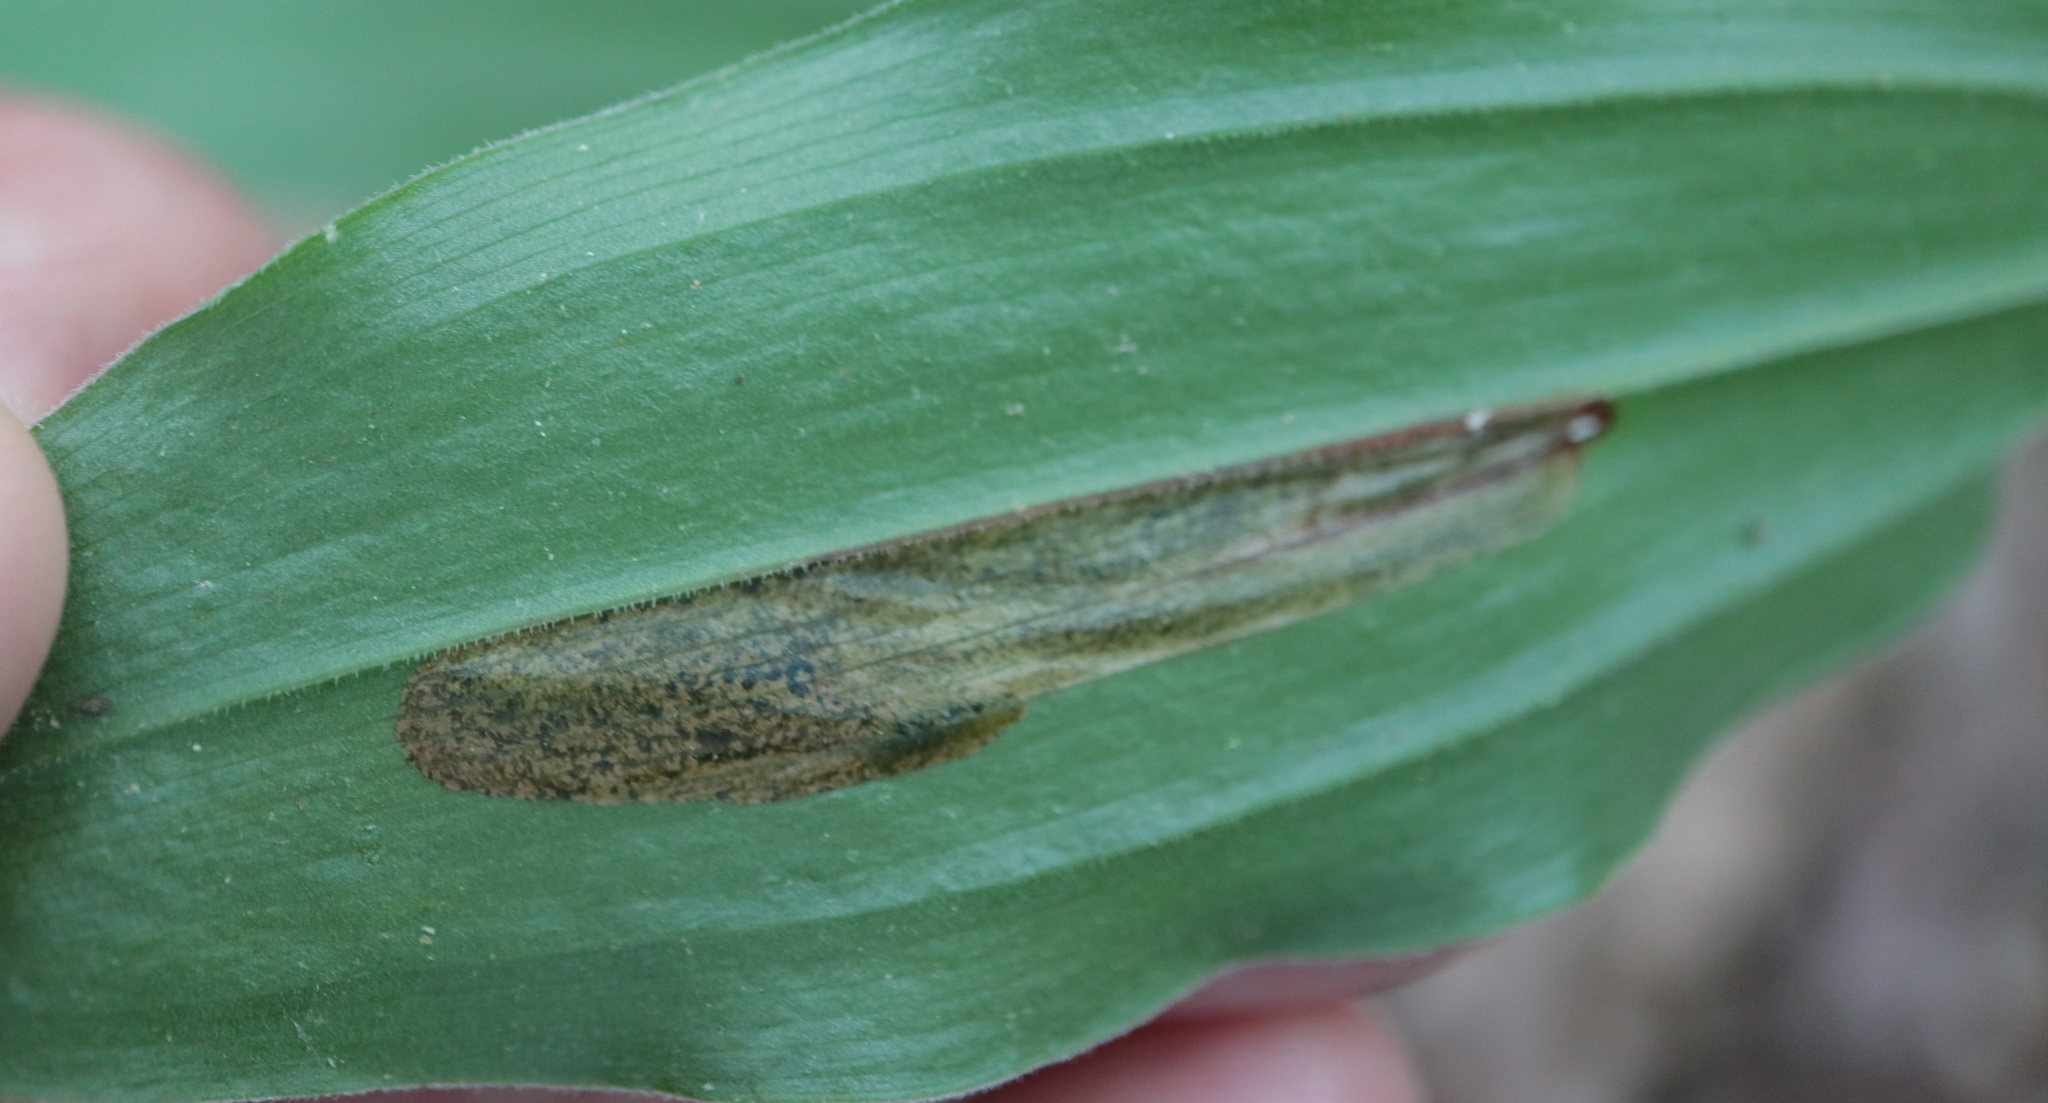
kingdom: Animalia
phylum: Arthropoda
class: Insecta
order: Diptera
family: Scathophagidae
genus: Synchysa
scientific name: Synchysa tricincta
